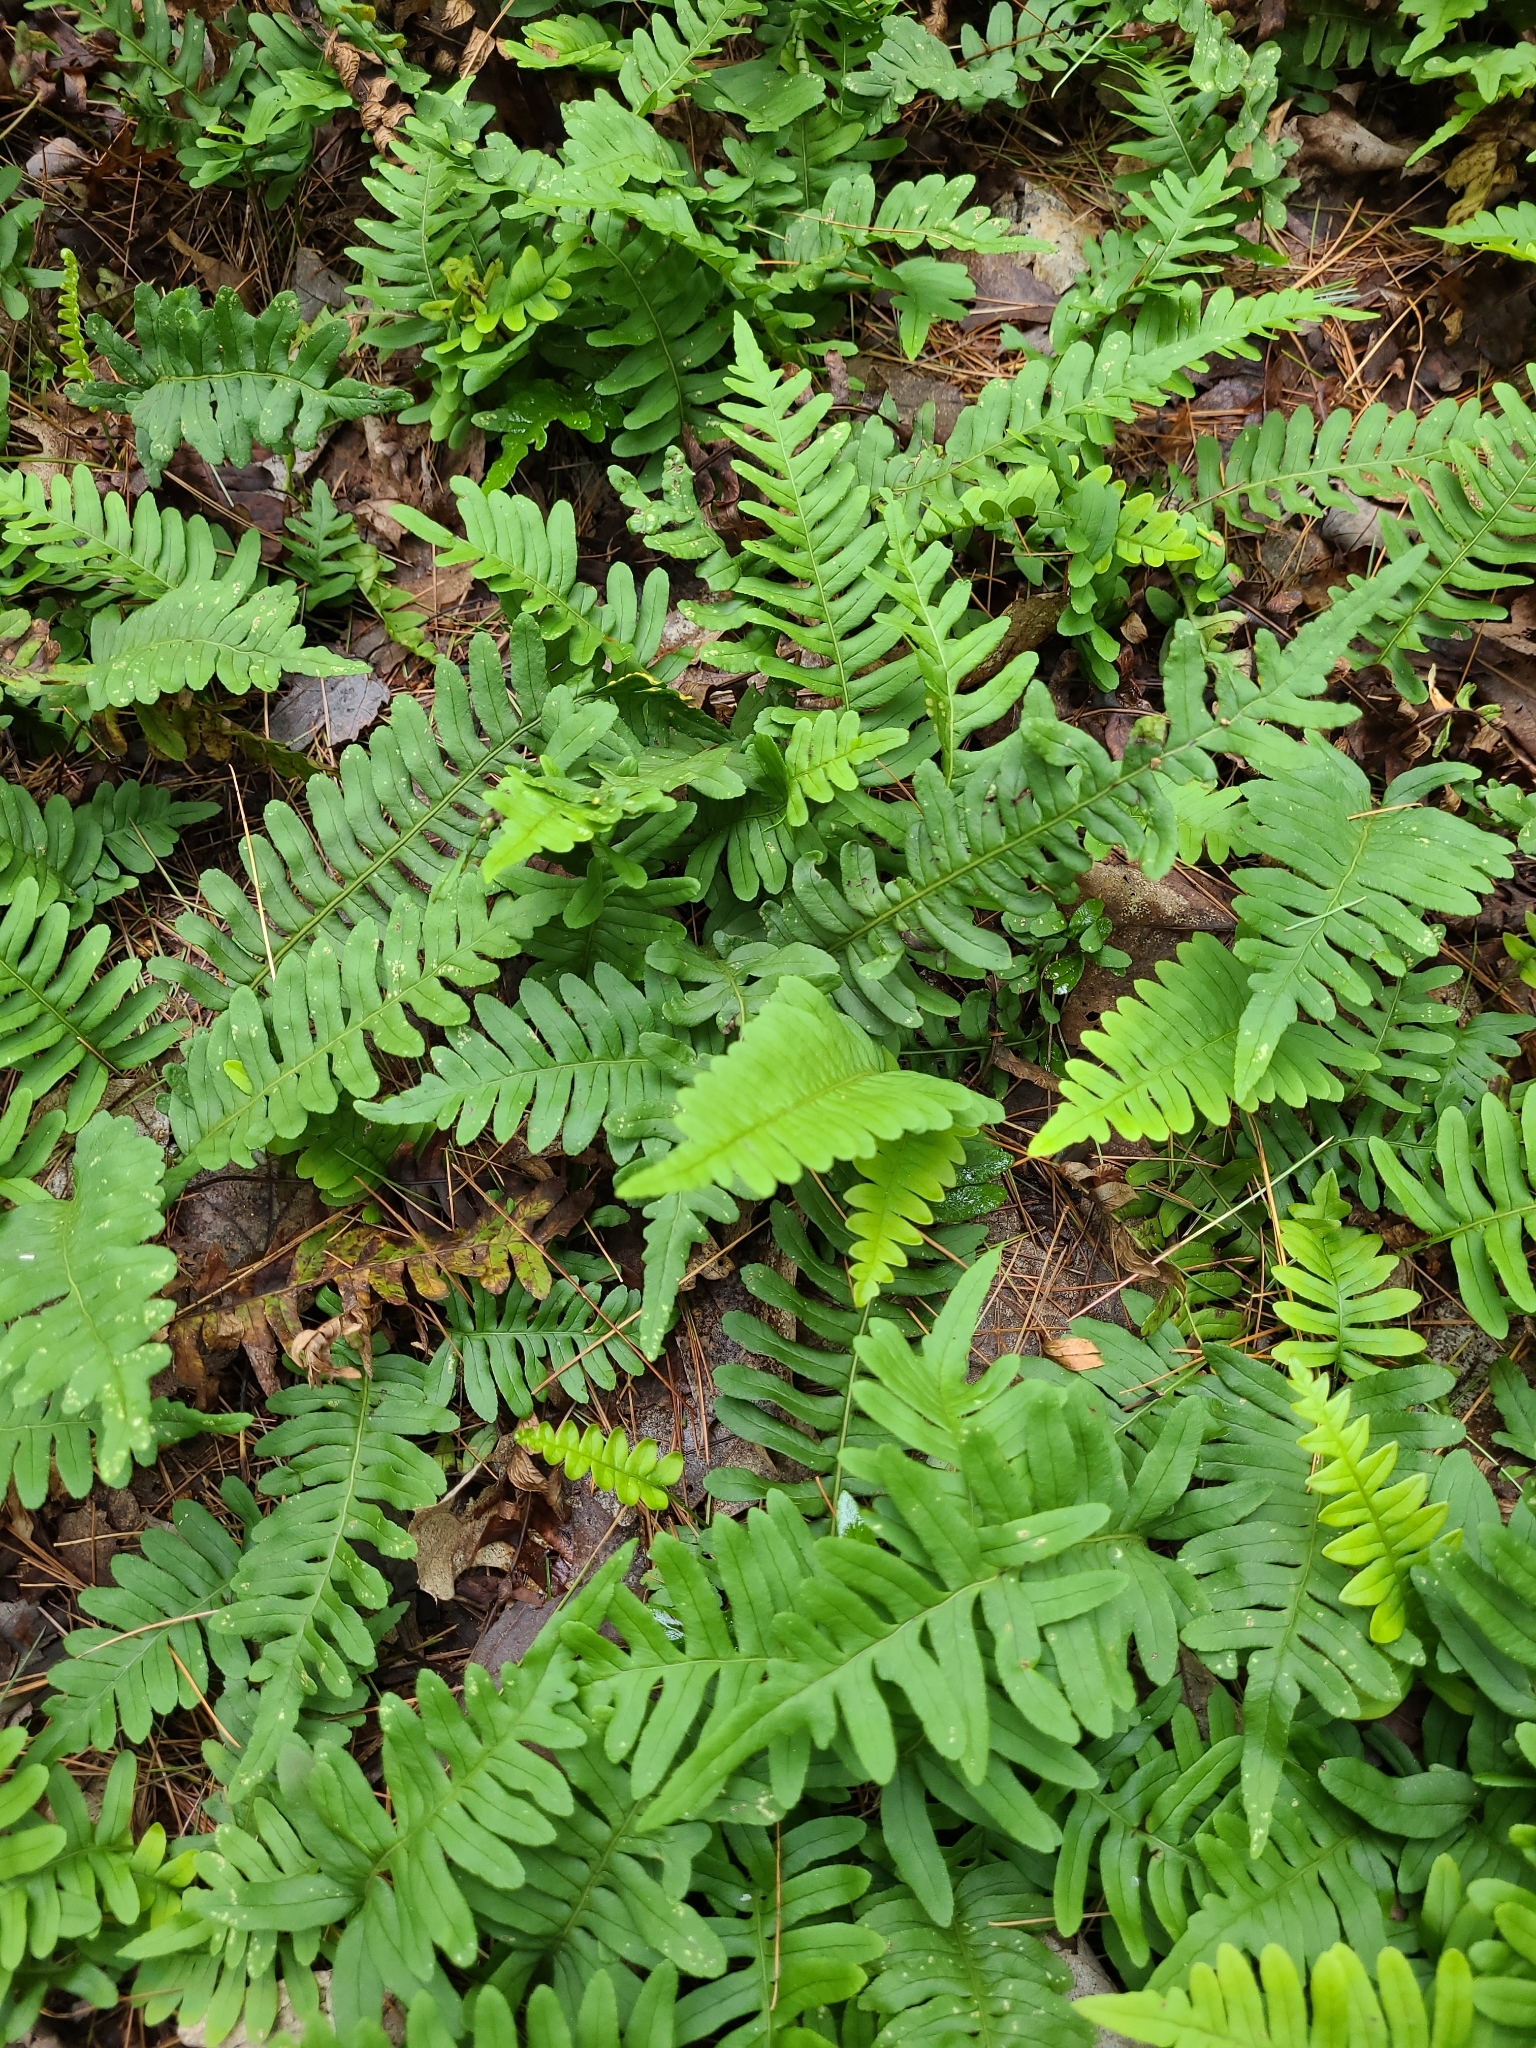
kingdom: Plantae
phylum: Tracheophyta
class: Polypodiopsida
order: Polypodiales
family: Polypodiaceae
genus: Polypodium
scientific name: Polypodium virginianum
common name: American wall fern
